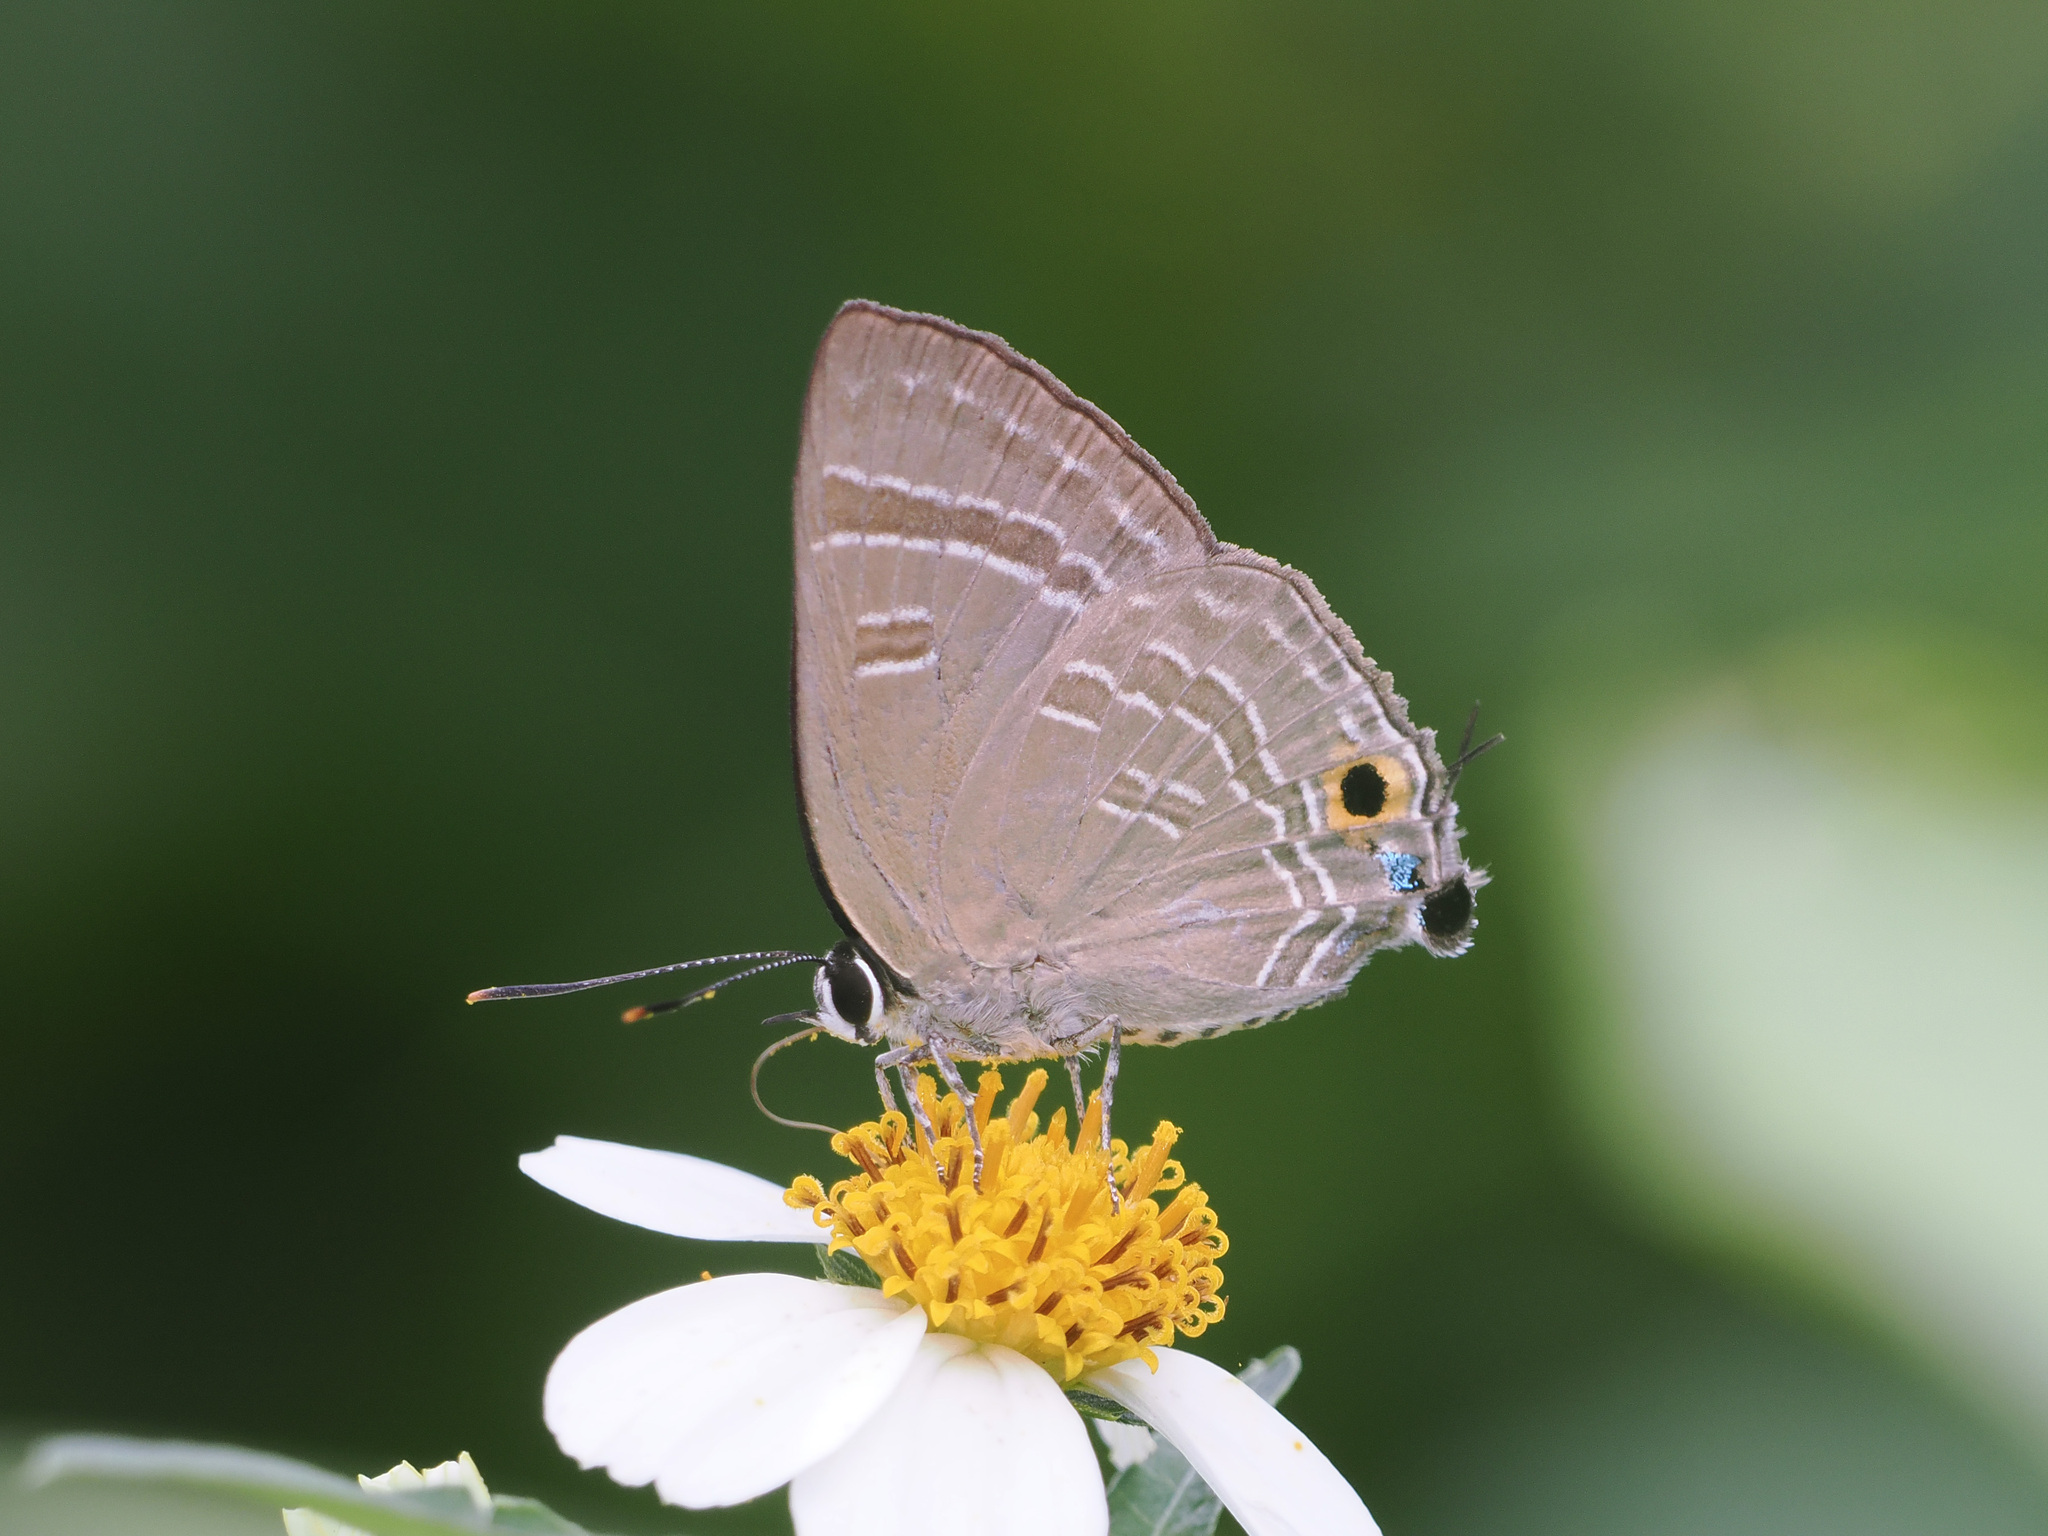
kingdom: Animalia
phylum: Arthropoda
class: Insecta
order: Lepidoptera
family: Lycaenidae
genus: Deudorix
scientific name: Deudorix epijarbas
